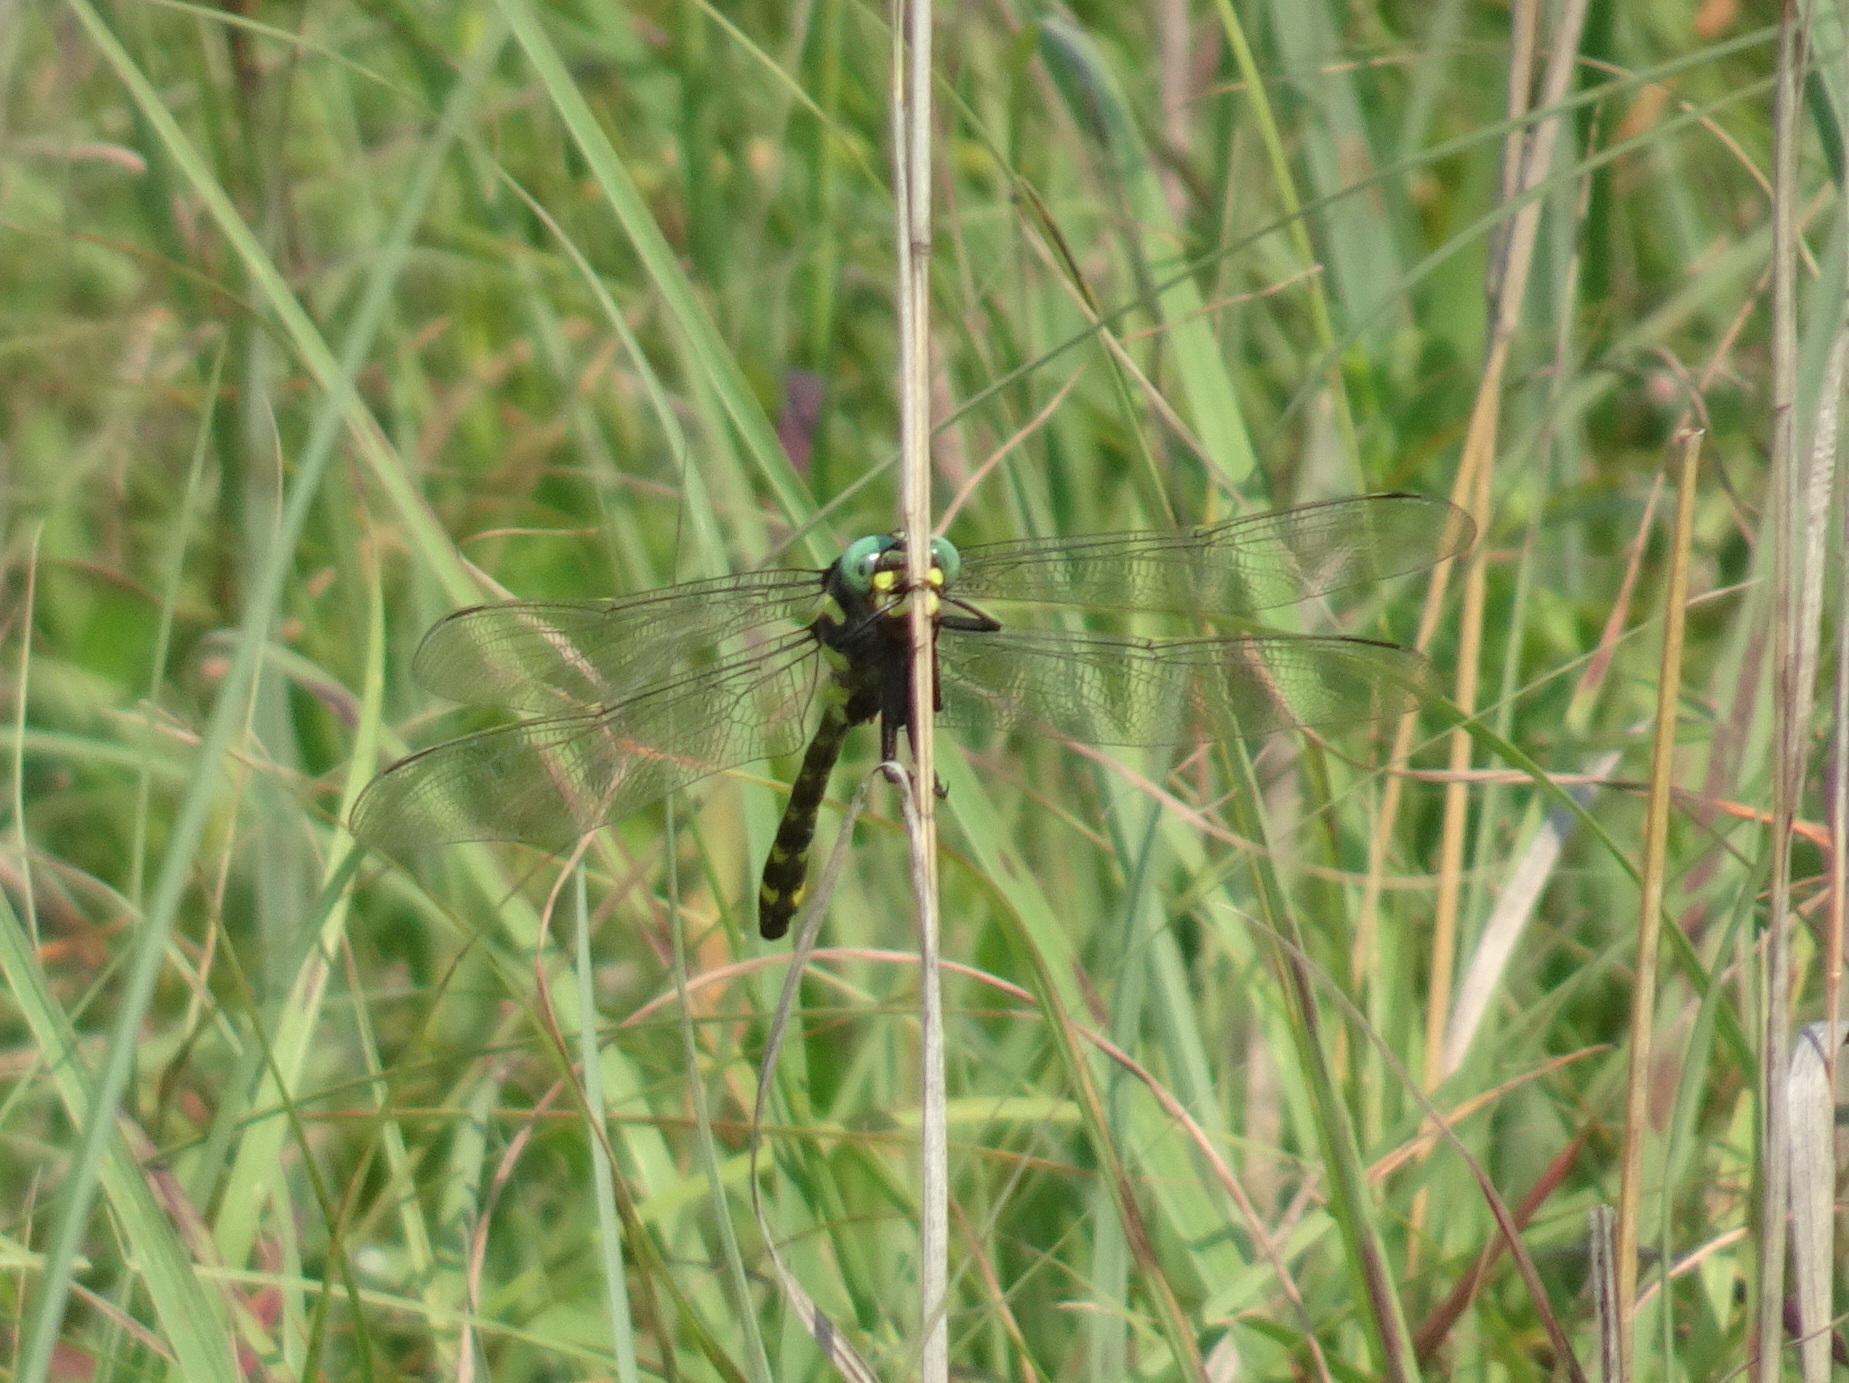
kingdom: Animalia
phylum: Arthropoda
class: Insecta
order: Odonata
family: Cordulegastridae
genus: Cordulegaster
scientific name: Cordulegaster obliqua
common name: Arrowhead spiketail
